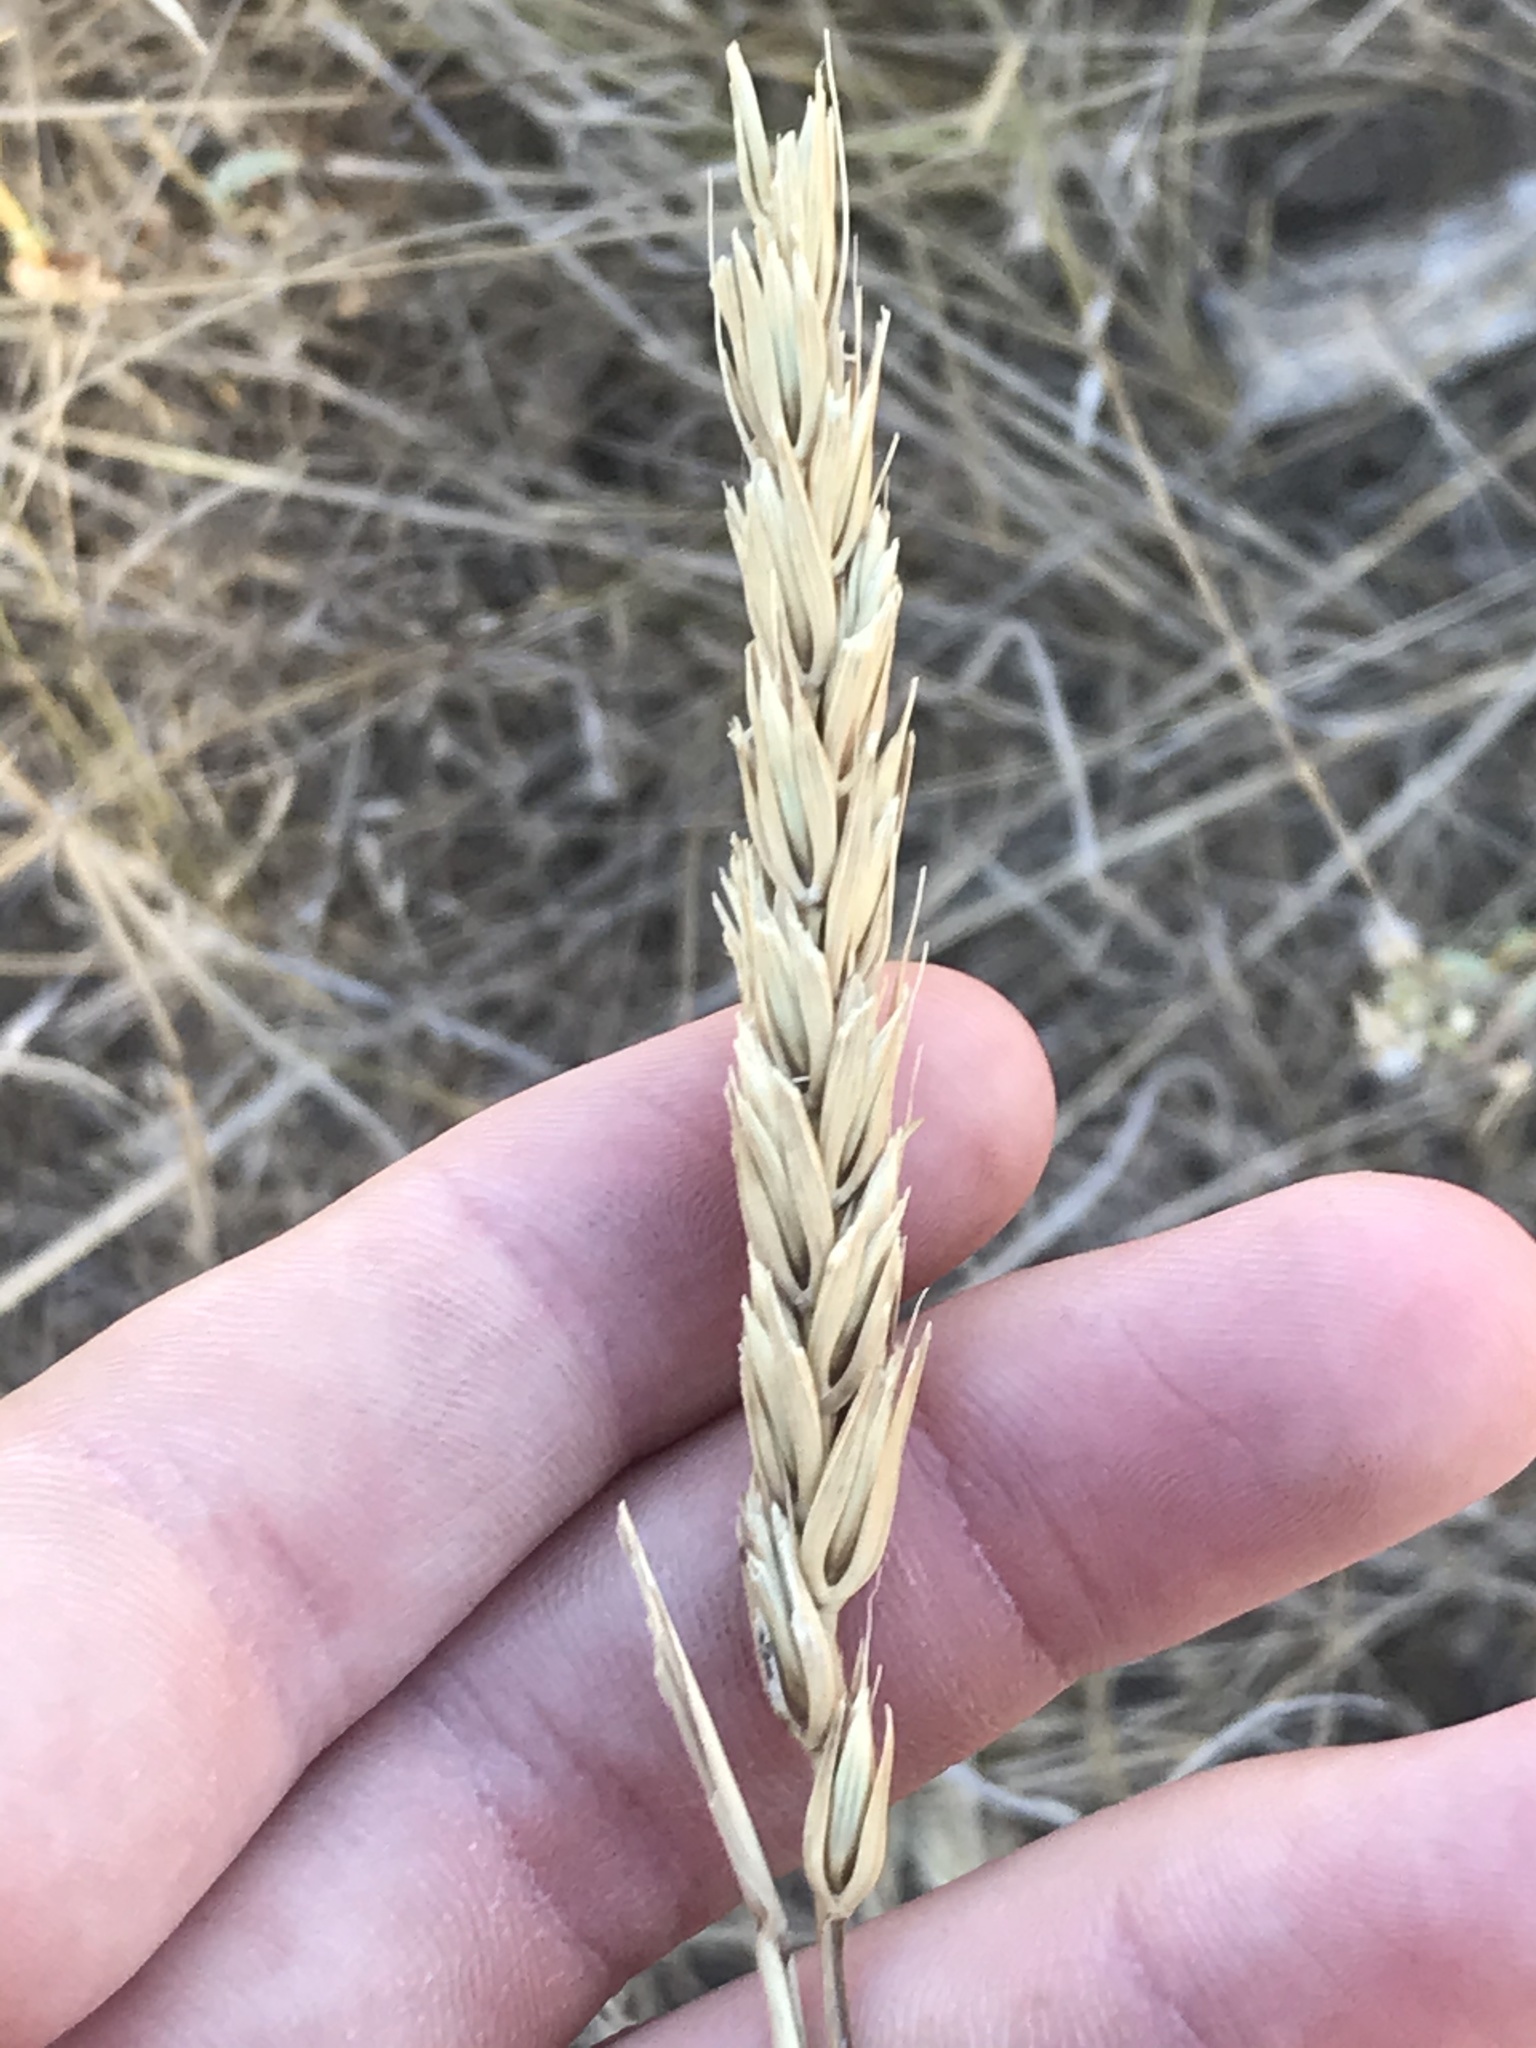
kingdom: Plantae
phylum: Tracheophyta
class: Liliopsida
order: Poales
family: Poaceae
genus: Elymus
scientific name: Elymus virginicus
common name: Common eastern wildrye
